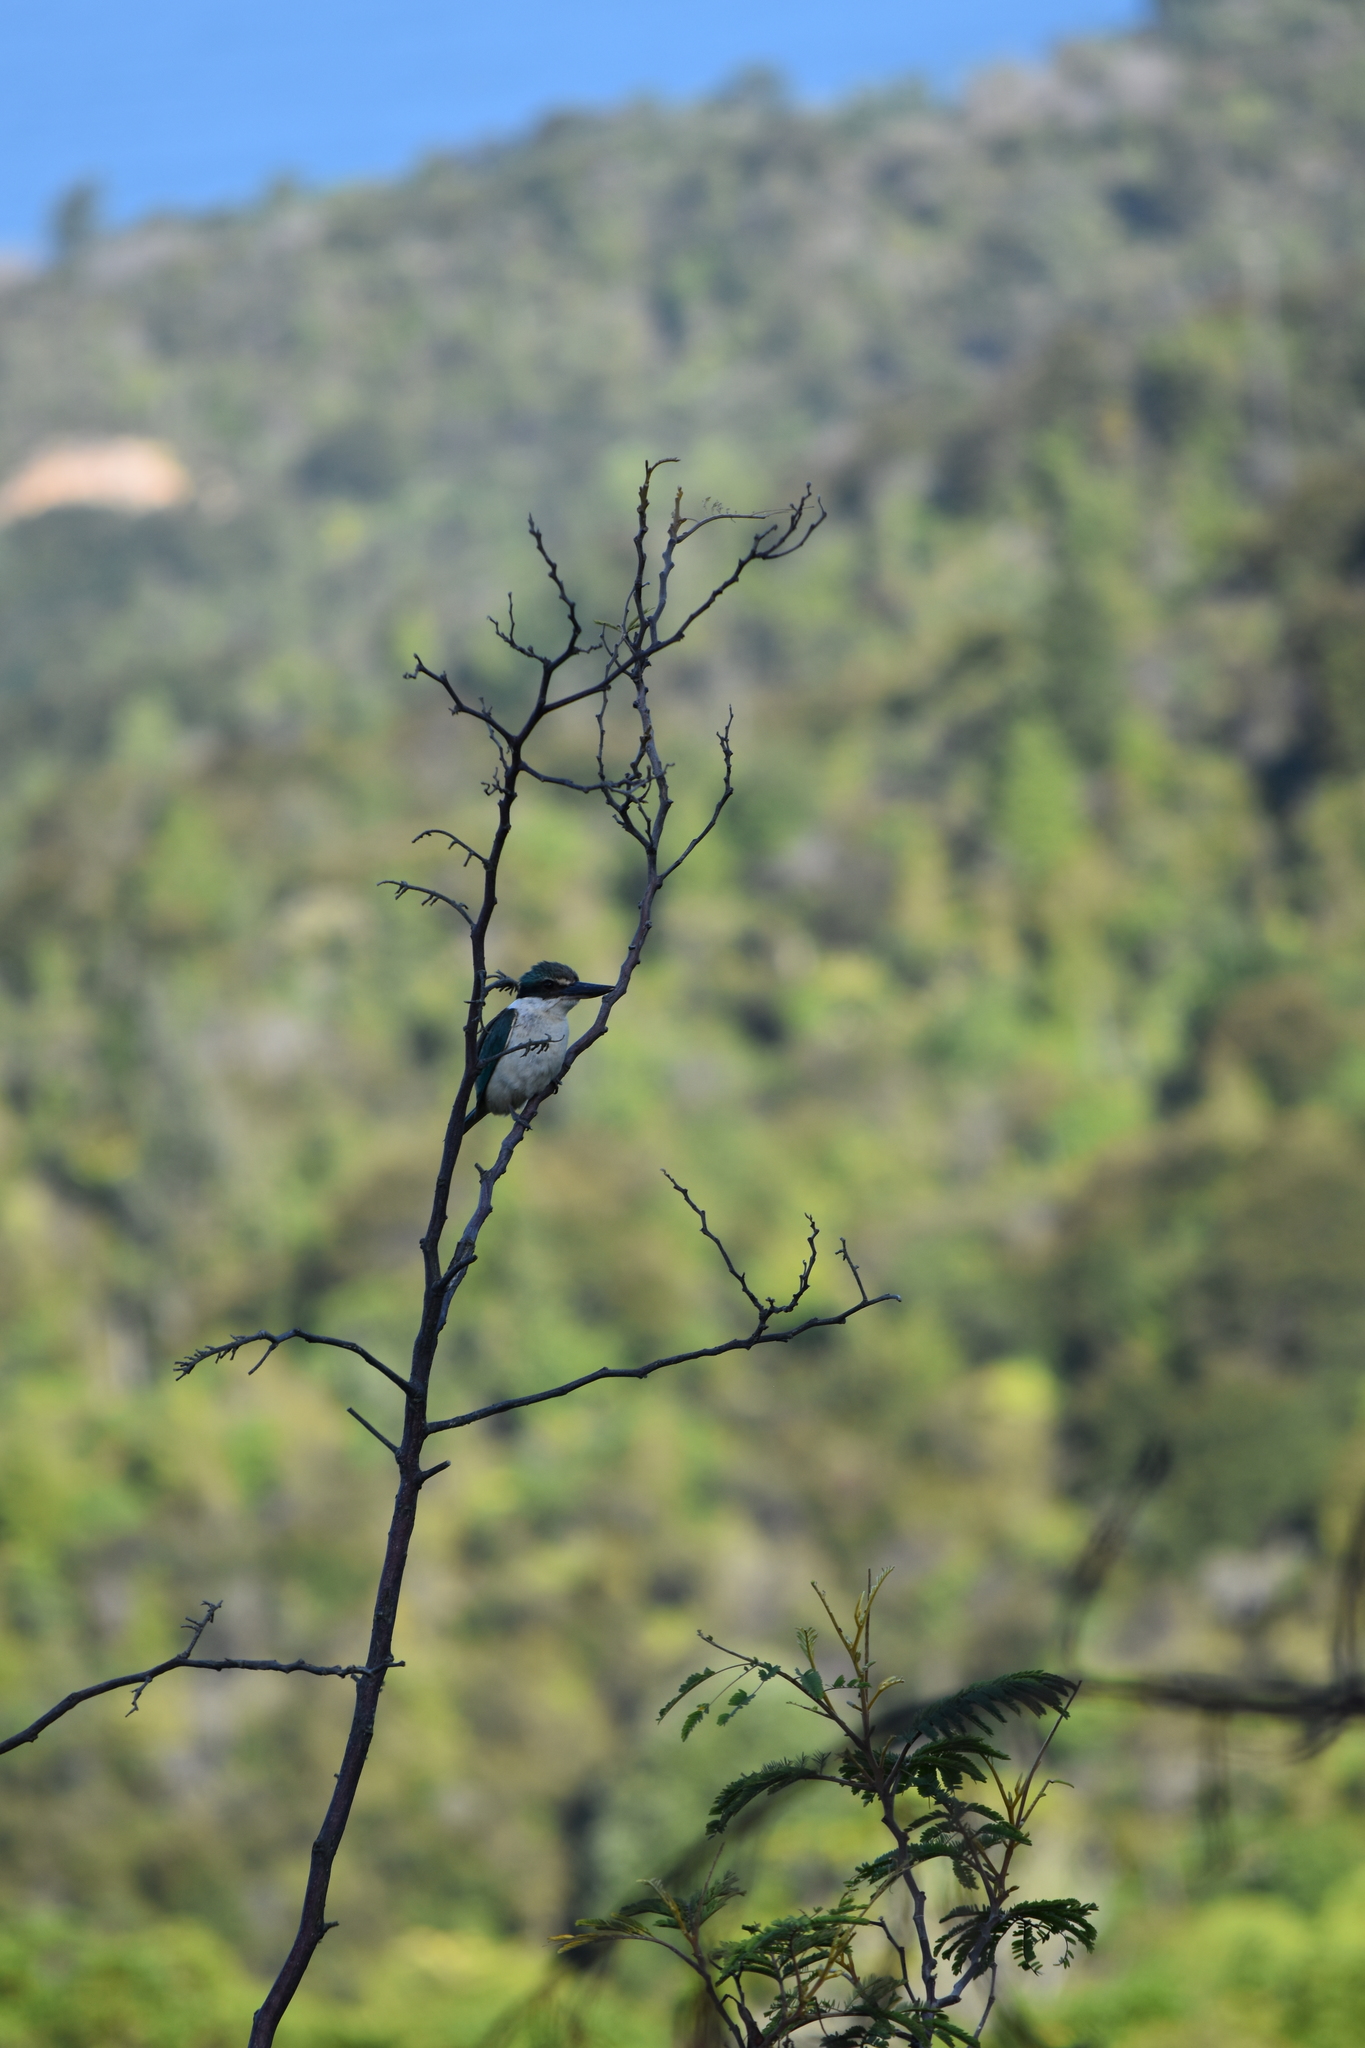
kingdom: Animalia
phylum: Chordata
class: Aves
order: Coraciiformes
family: Alcedinidae
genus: Todiramphus
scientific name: Todiramphus sanctus
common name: Sacred kingfisher
